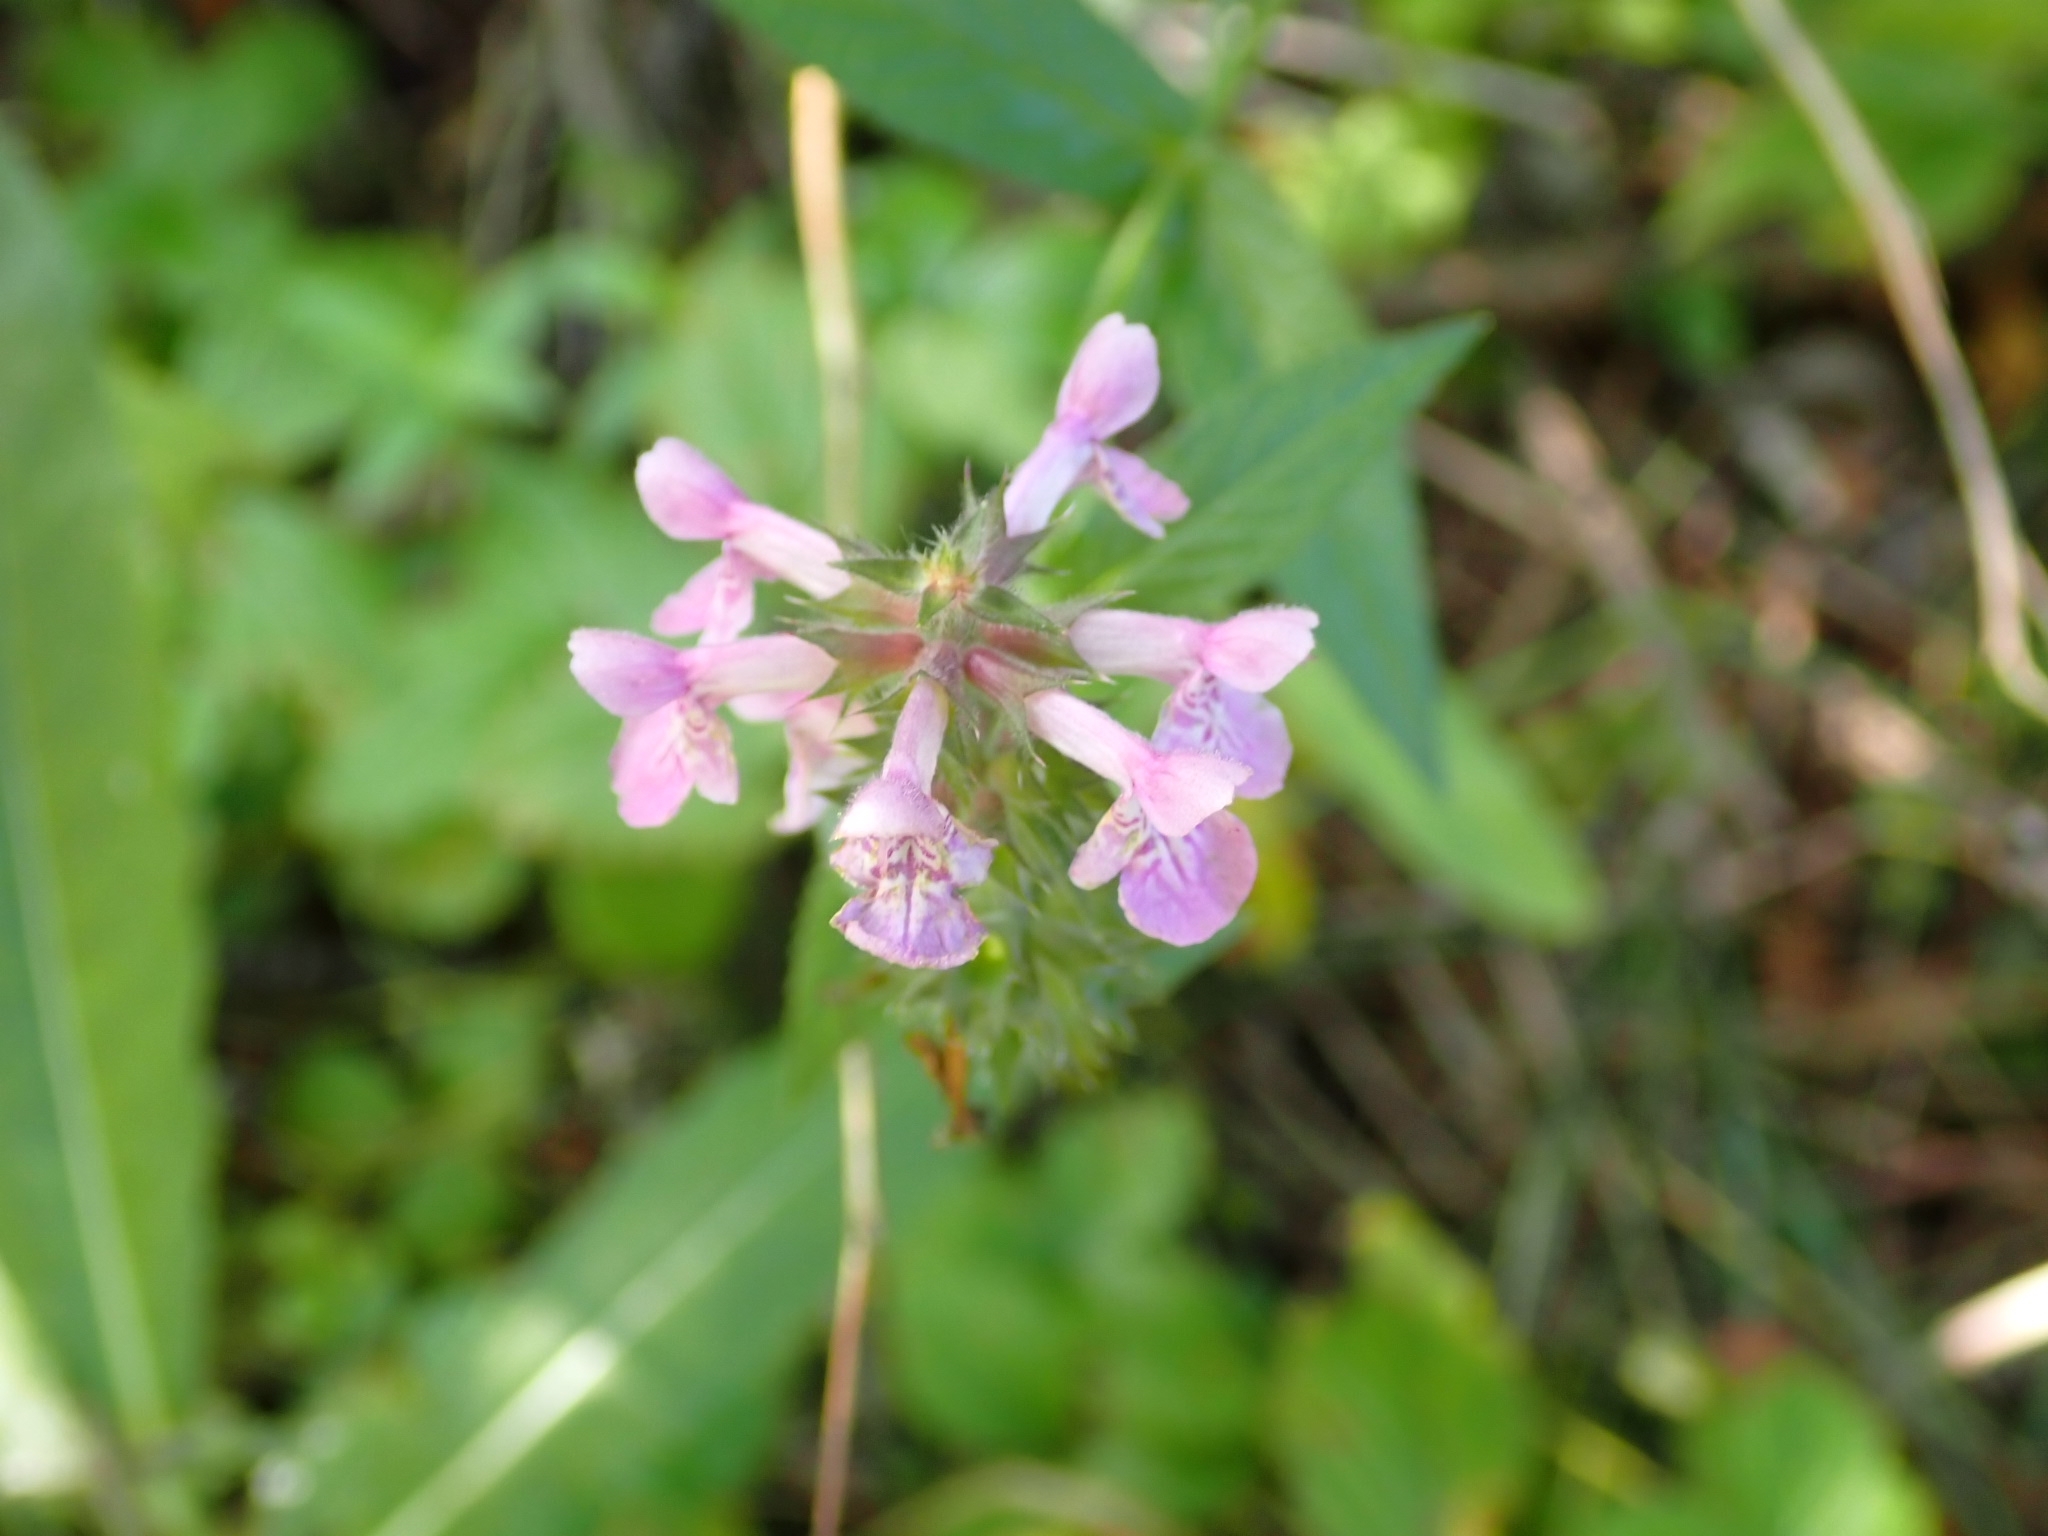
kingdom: Plantae
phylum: Tracheophyta
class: Magnoliopsida
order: Lamiales
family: Lamiaceae
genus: Stachys
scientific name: Stachys palustris
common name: Marsh woundwort
